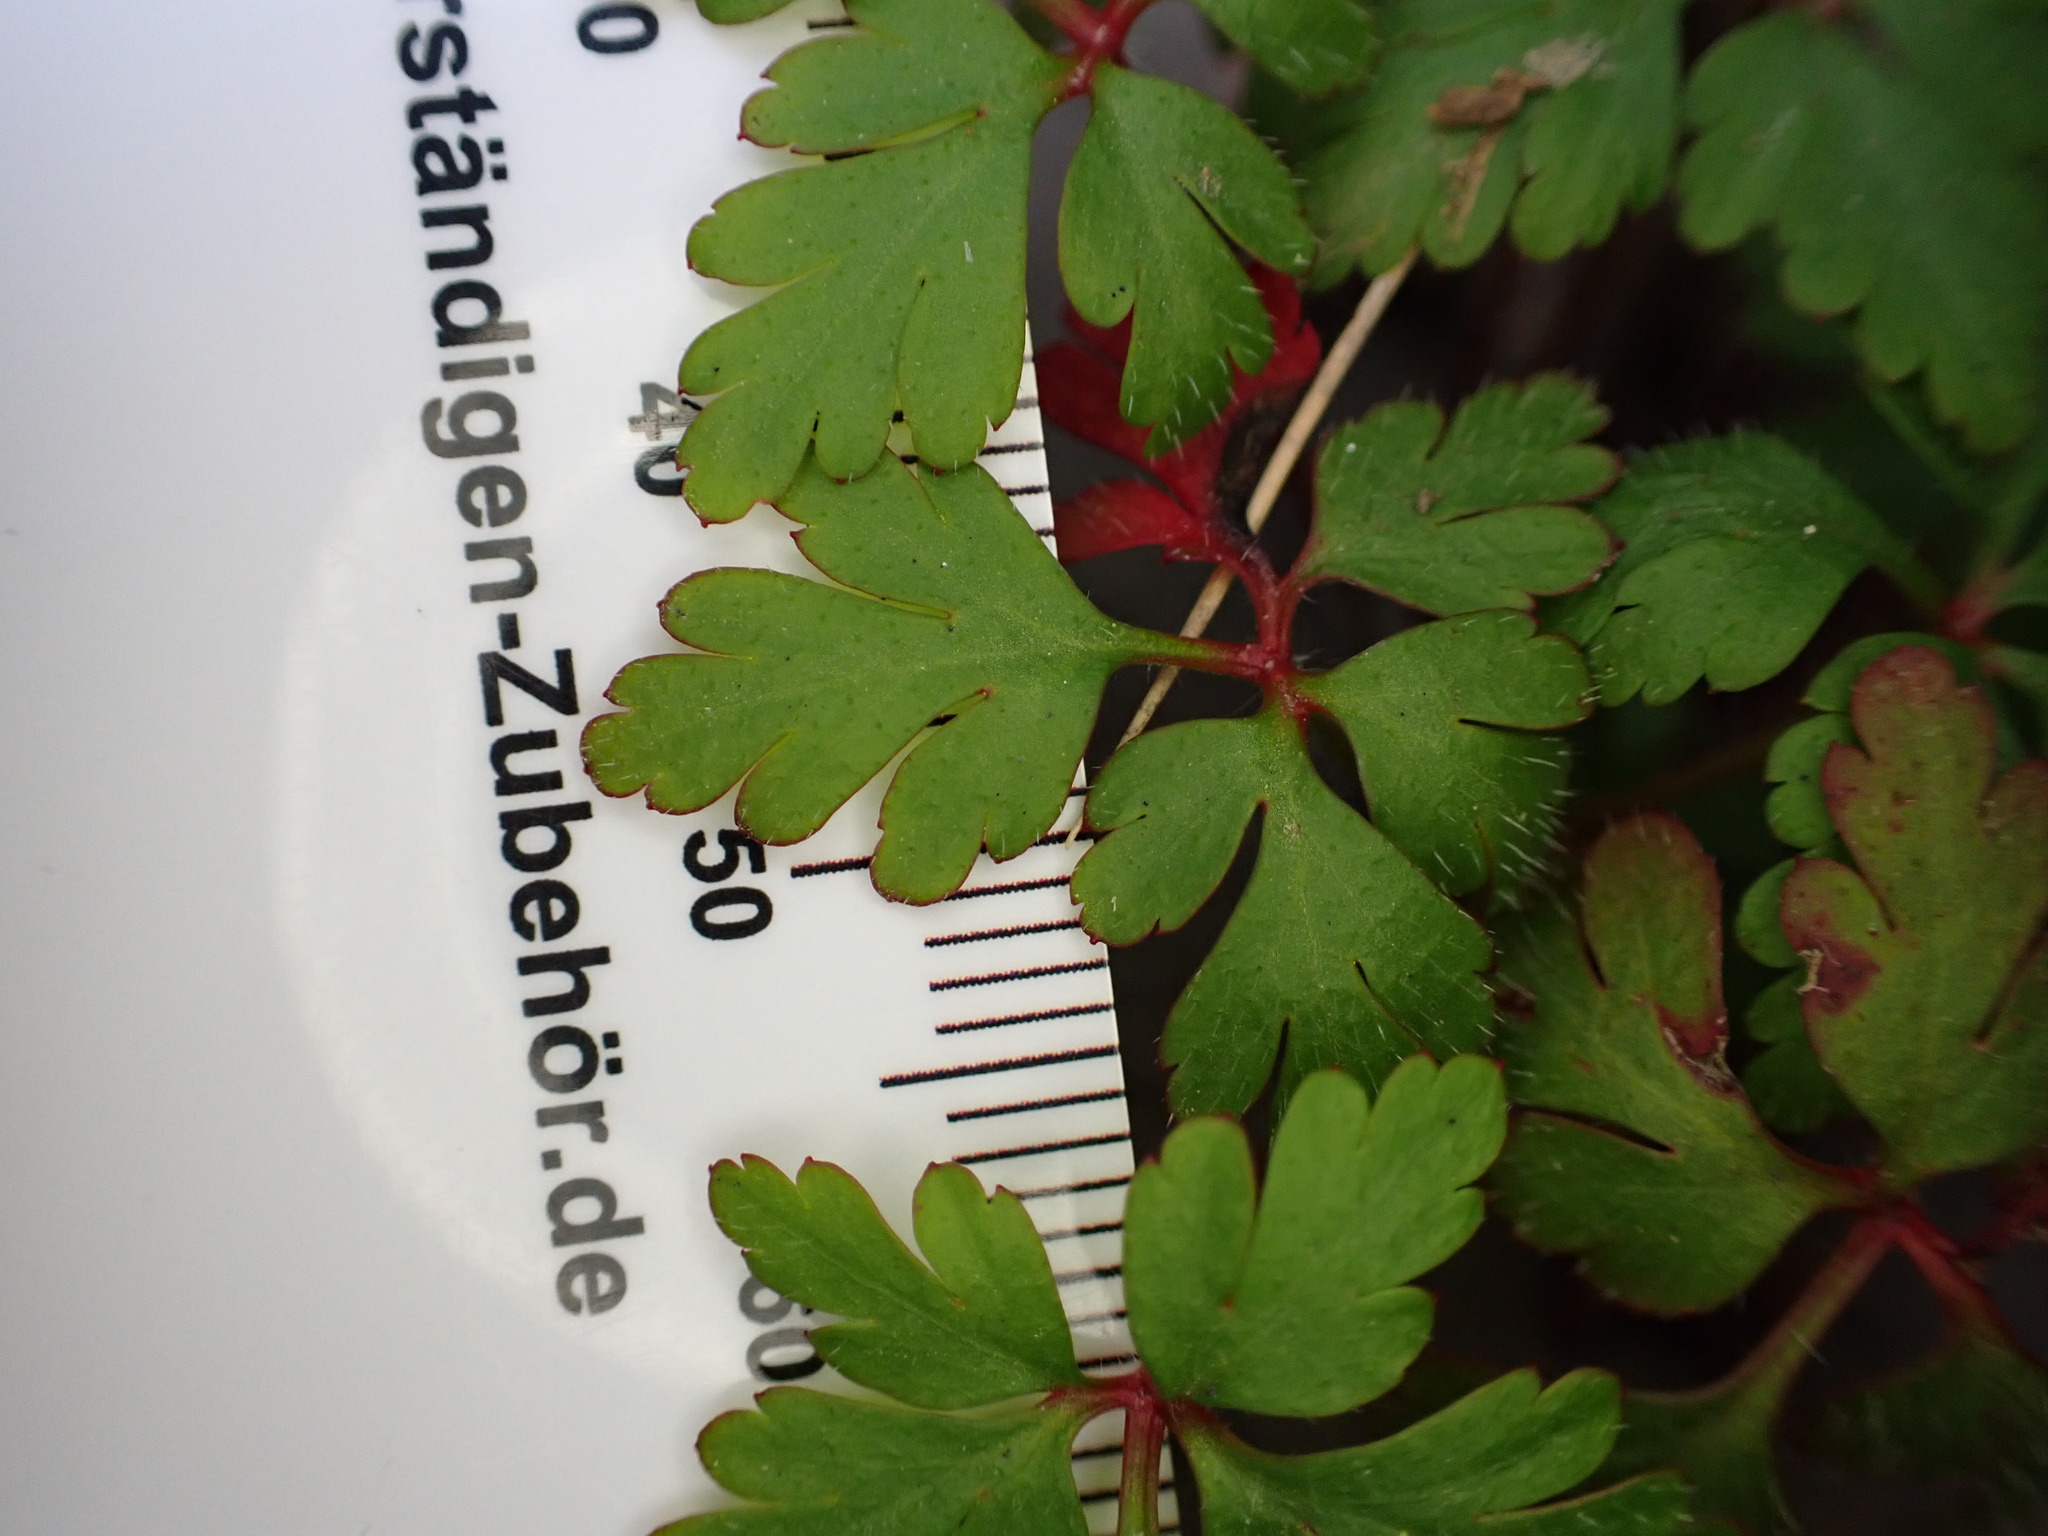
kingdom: Plantae
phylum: Tracheophyta
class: Magnoliopsida
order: Geraniales
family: Geraniaceae
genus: Geranium
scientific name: Geranium purpureum
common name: Little-robin
